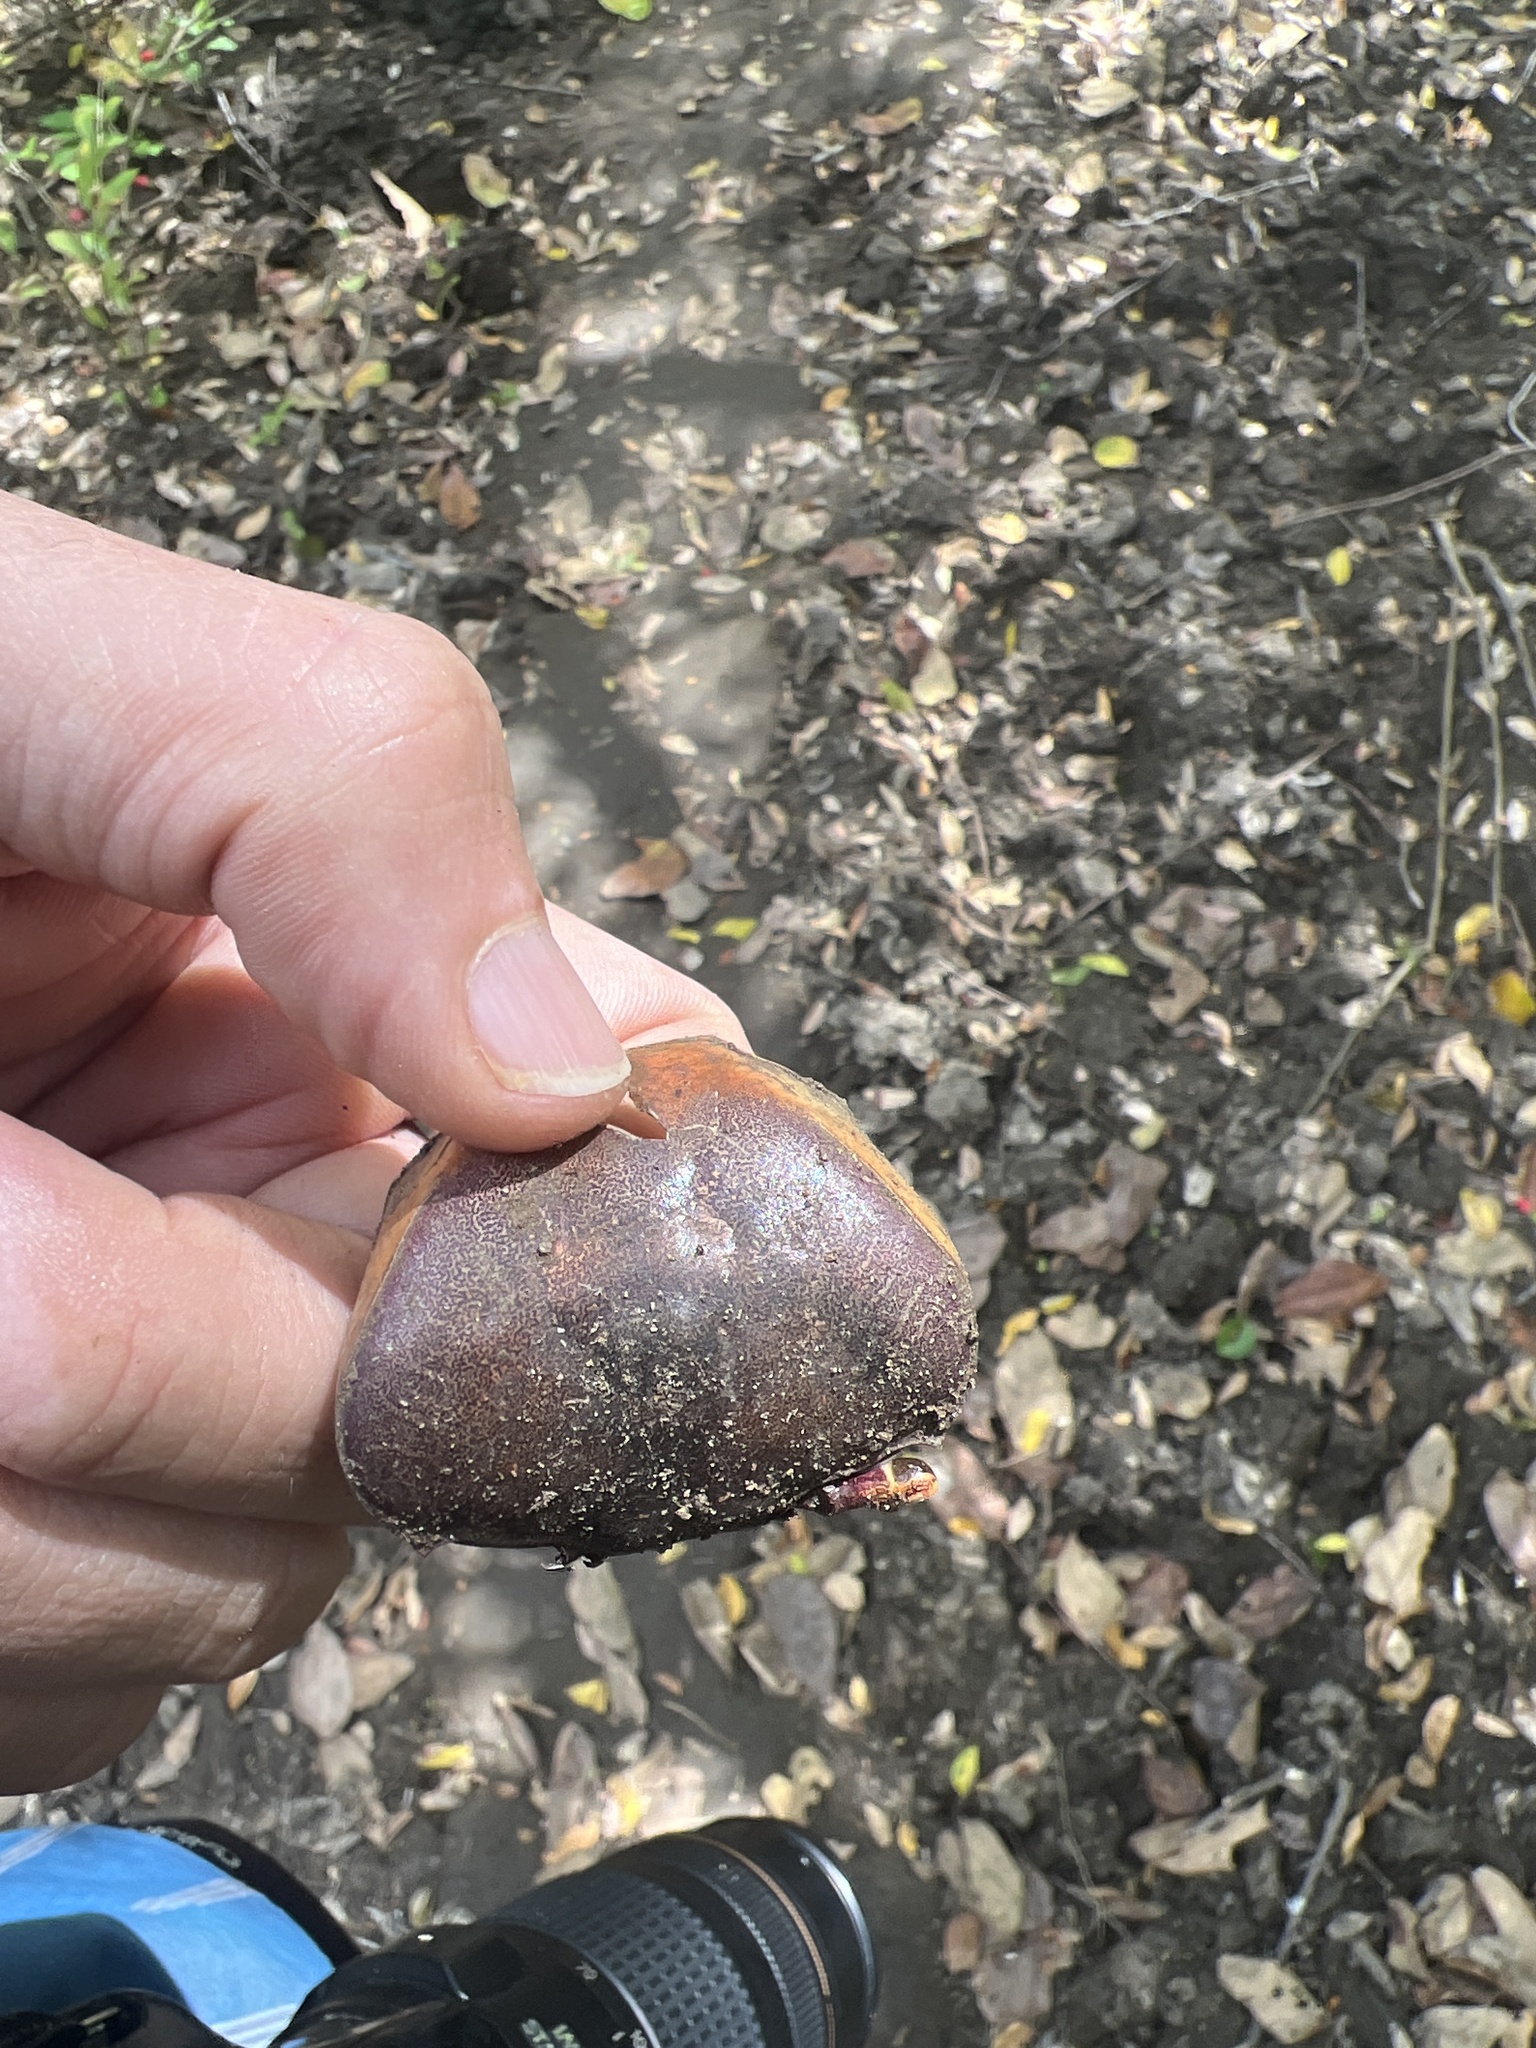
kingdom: Animalia
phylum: Arthropoda
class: Malacostraca
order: Decapoda
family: Gecarcinidae
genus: Cardisoma
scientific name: Cardisoma crassum
